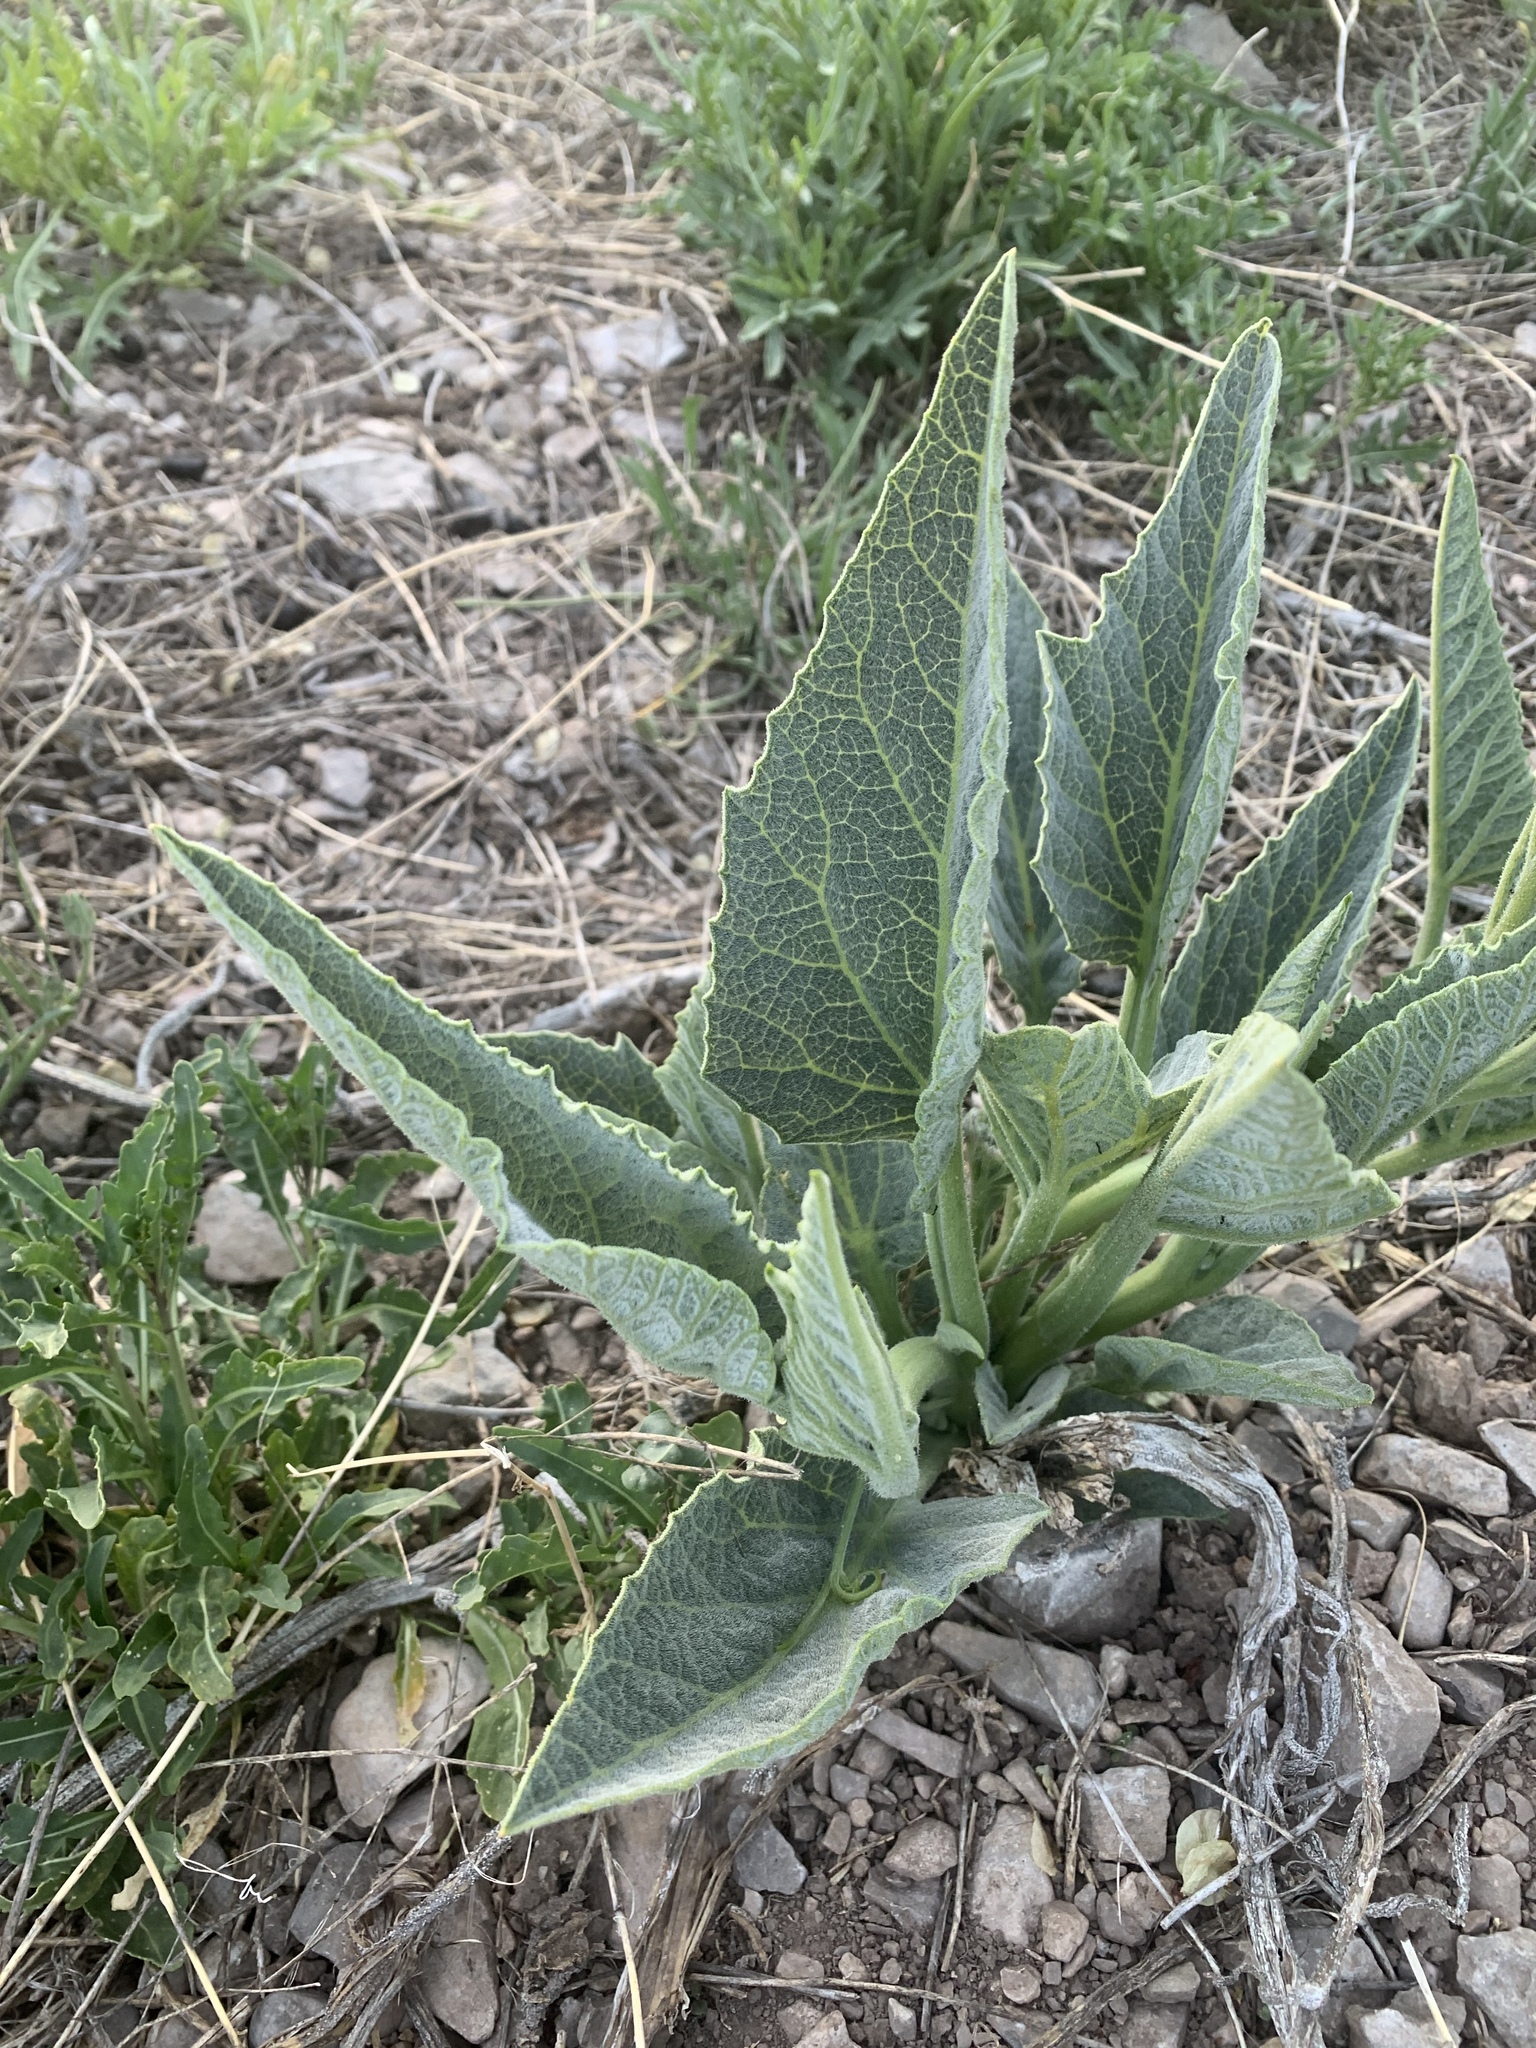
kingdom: Plantae
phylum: Tracheophyta
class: Magnoliopsida
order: Cucurbitales
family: Cucurbitaceae
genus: Cucurbita
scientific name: Cucurbita foetidissima
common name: Buffalo gourd
